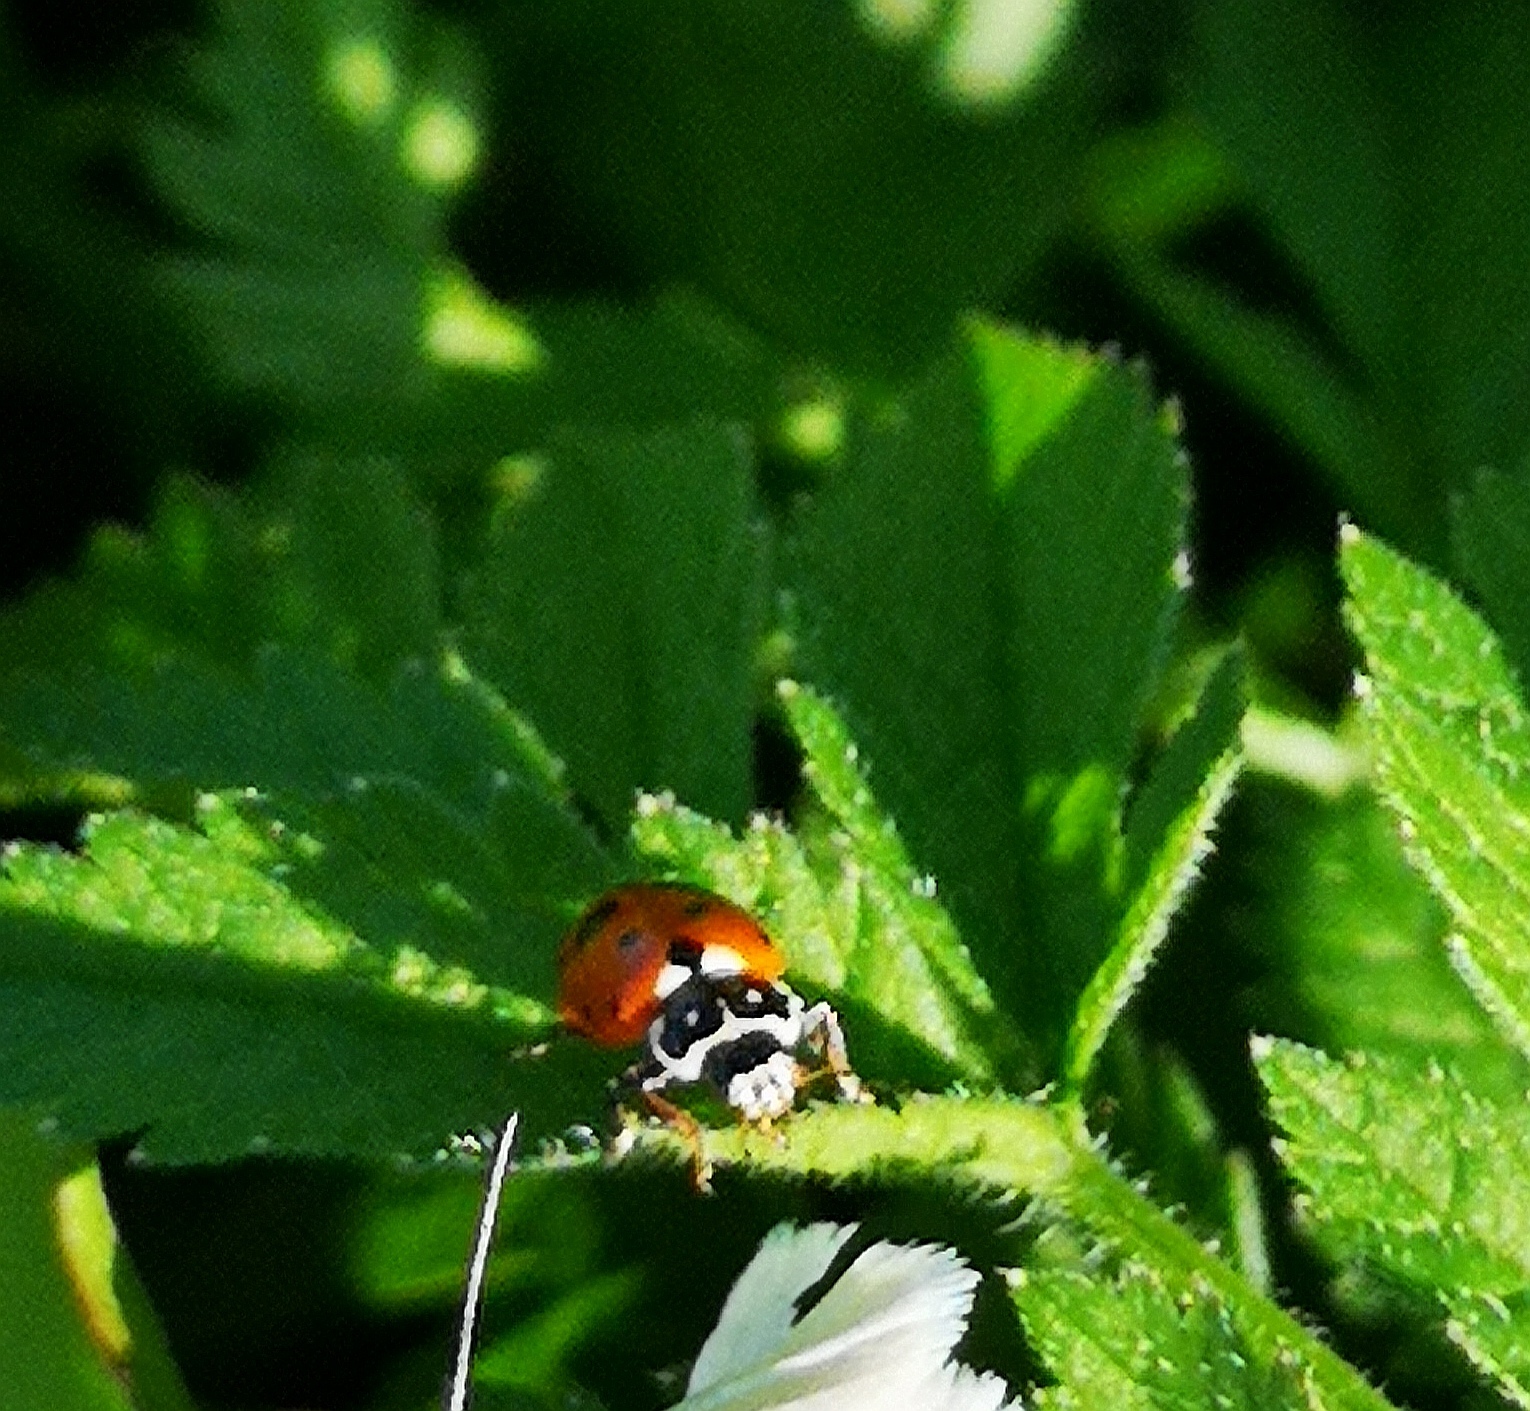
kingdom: Animalia
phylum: Arthropoda
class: Insecta
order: Coleoptera
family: Coccinellidae
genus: Hippodamia
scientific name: Hippodamia variegata
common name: Ladybird beetle
